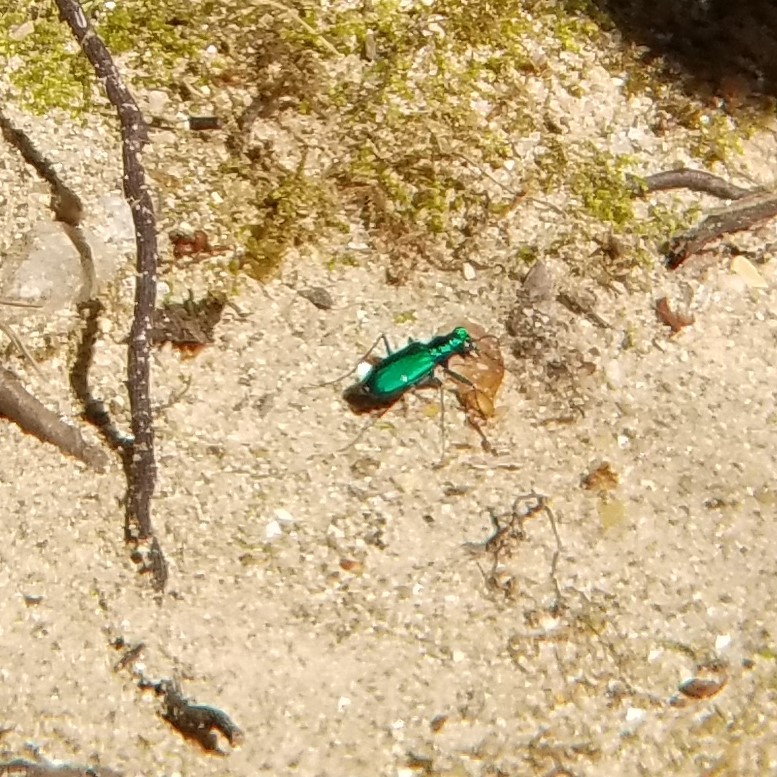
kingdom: Animalia
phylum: Arthropoda
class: Insecta
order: Coleoptera
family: Carabidae
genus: Cicindela
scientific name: Cicindela sexguttata
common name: Six-spotted tiger beetle
